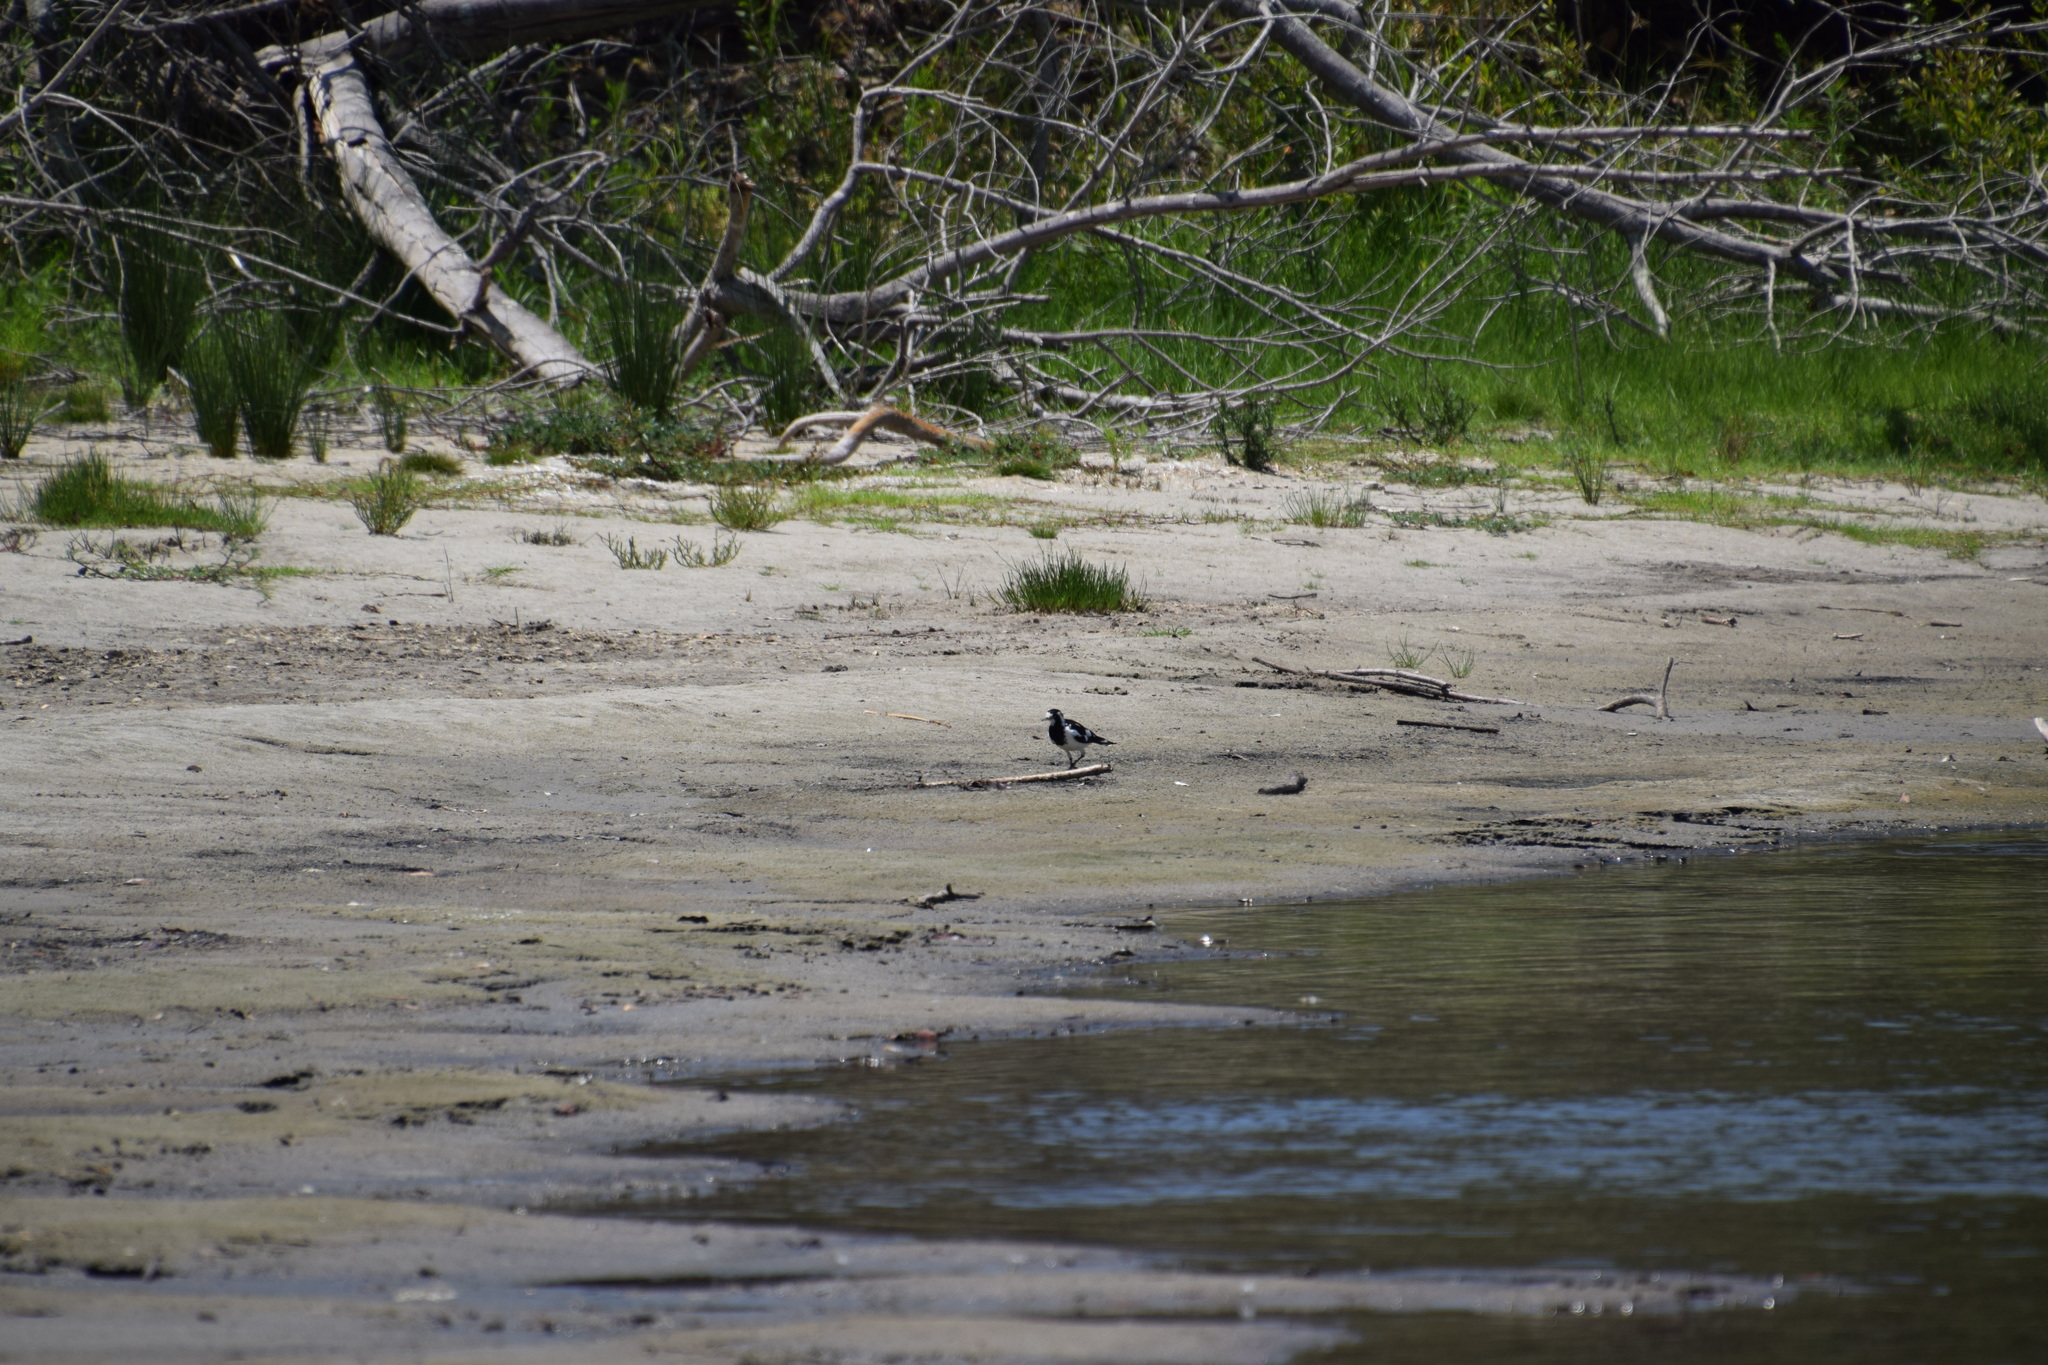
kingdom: Animalia
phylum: Chordata
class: Aves
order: Passeriformes
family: Monarchidae
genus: Grallina
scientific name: Grallina cyanoleuca
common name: Magpie-lark
